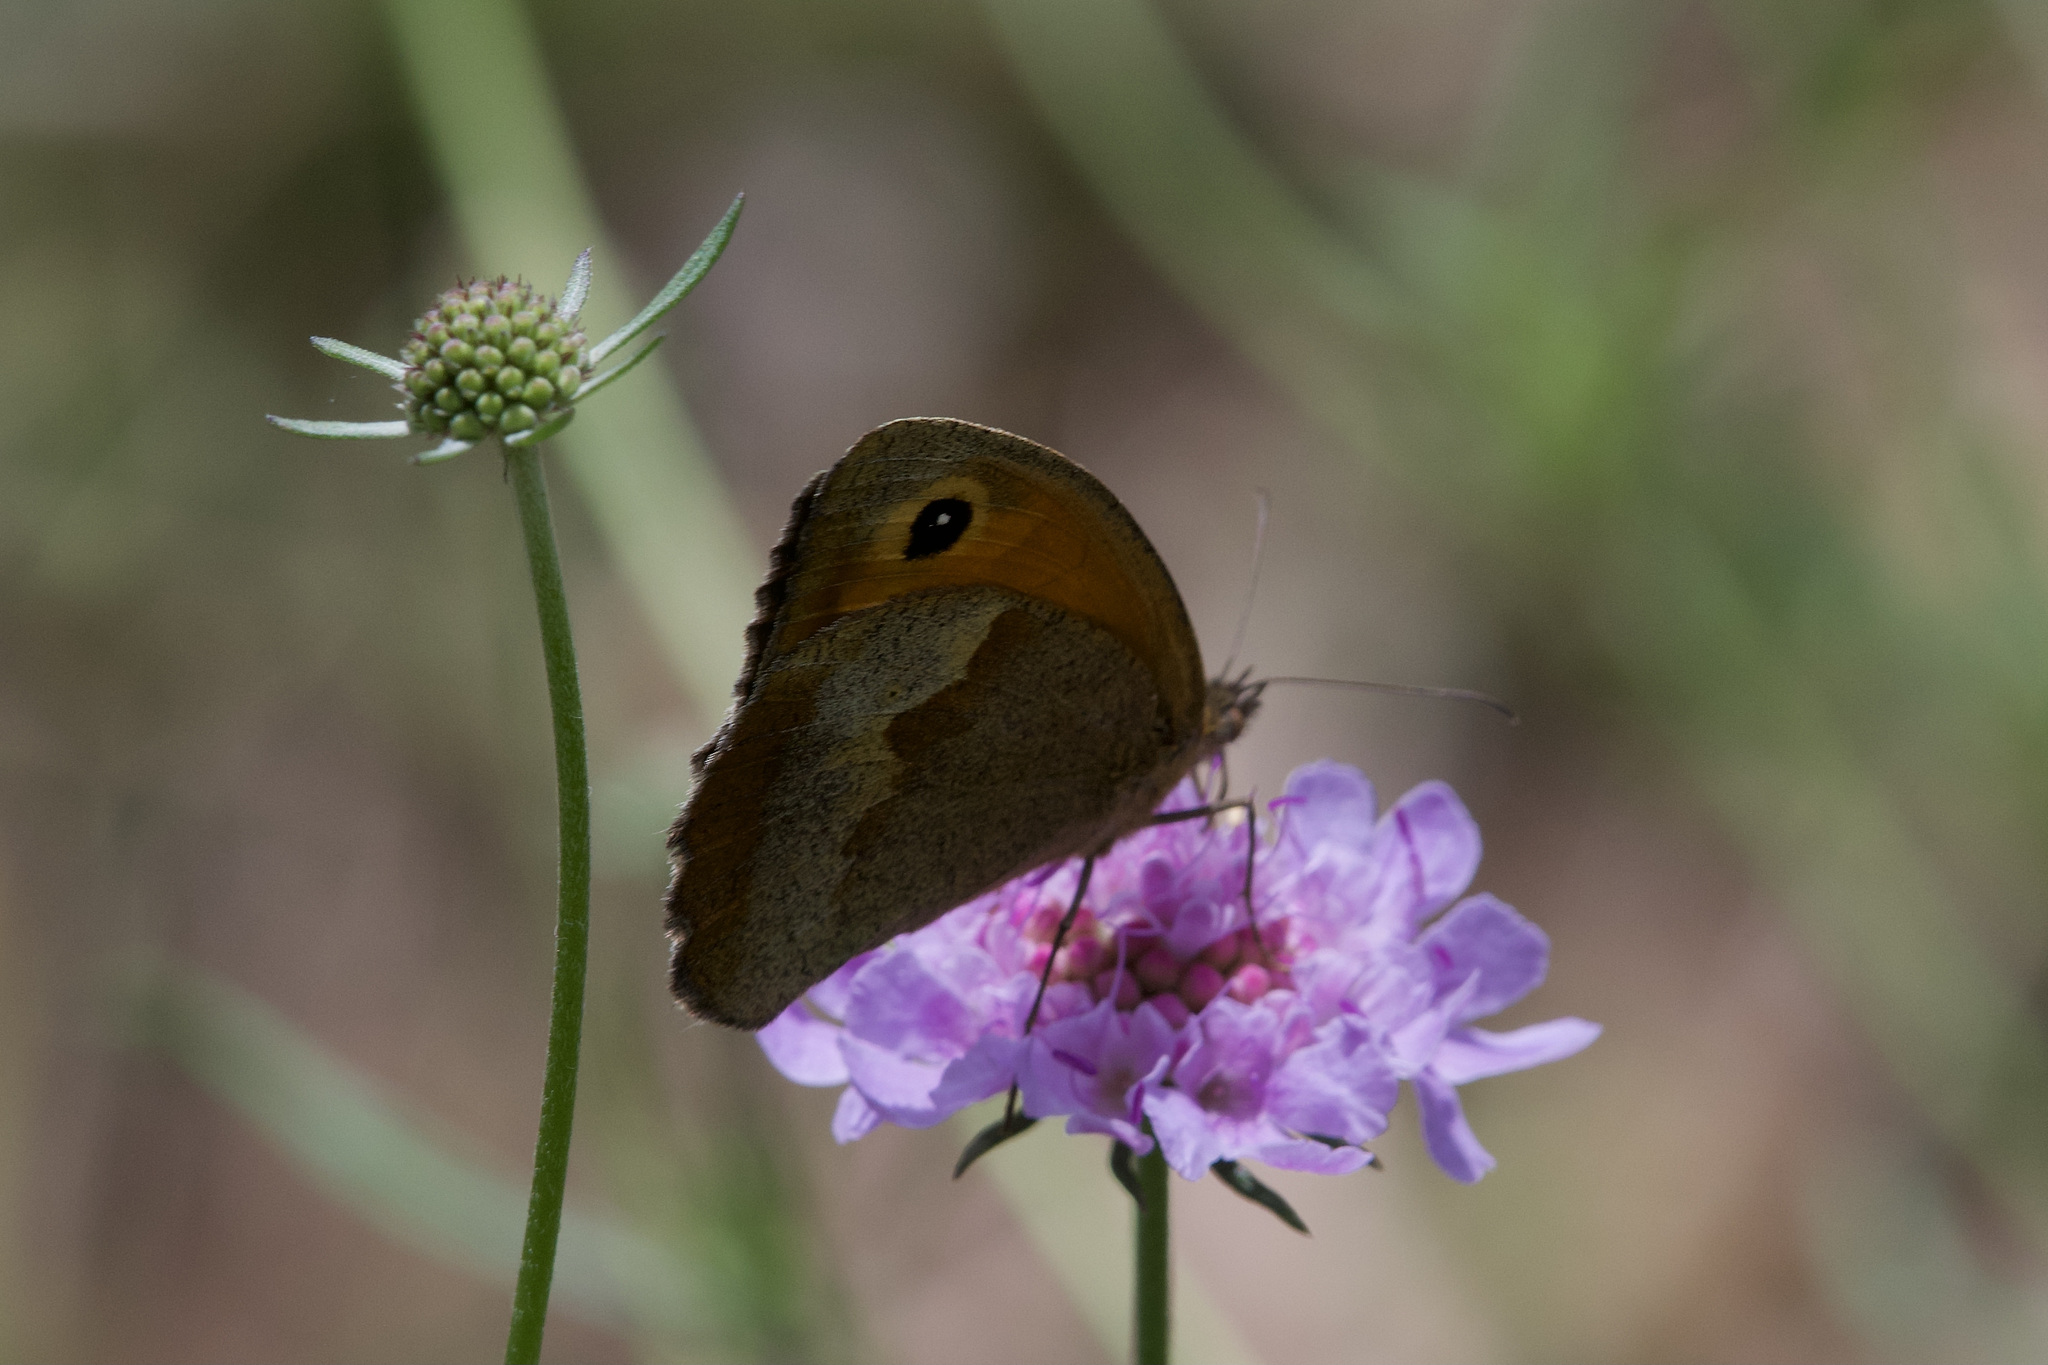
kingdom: Animalia
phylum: Arthropoda
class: Insecta
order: Lepidoptera
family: Nymphalidae
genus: Maniola
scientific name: Maniola jurtina
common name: Meadow brown
